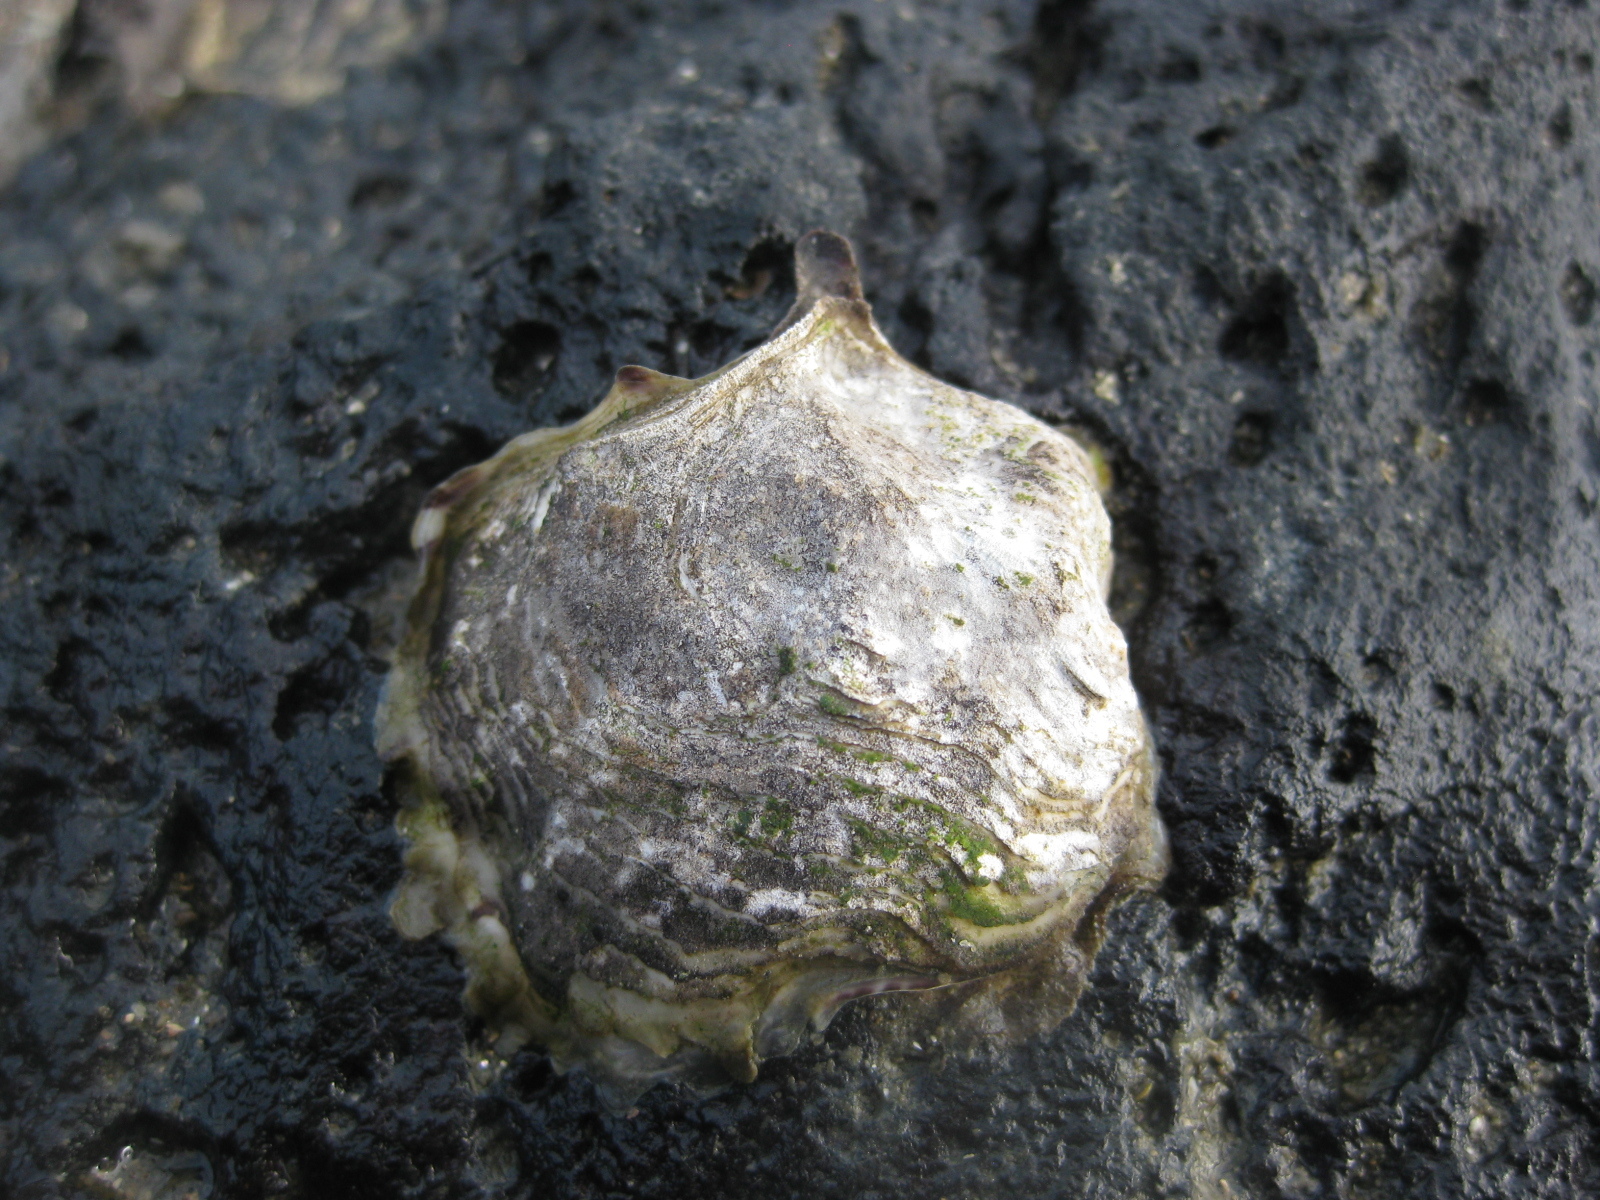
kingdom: Animalia
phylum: Mollusca
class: Bivalvia
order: Ostreida
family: Ostreidae
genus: Magallana
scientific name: Magallana gigas
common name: Pacific oyster
